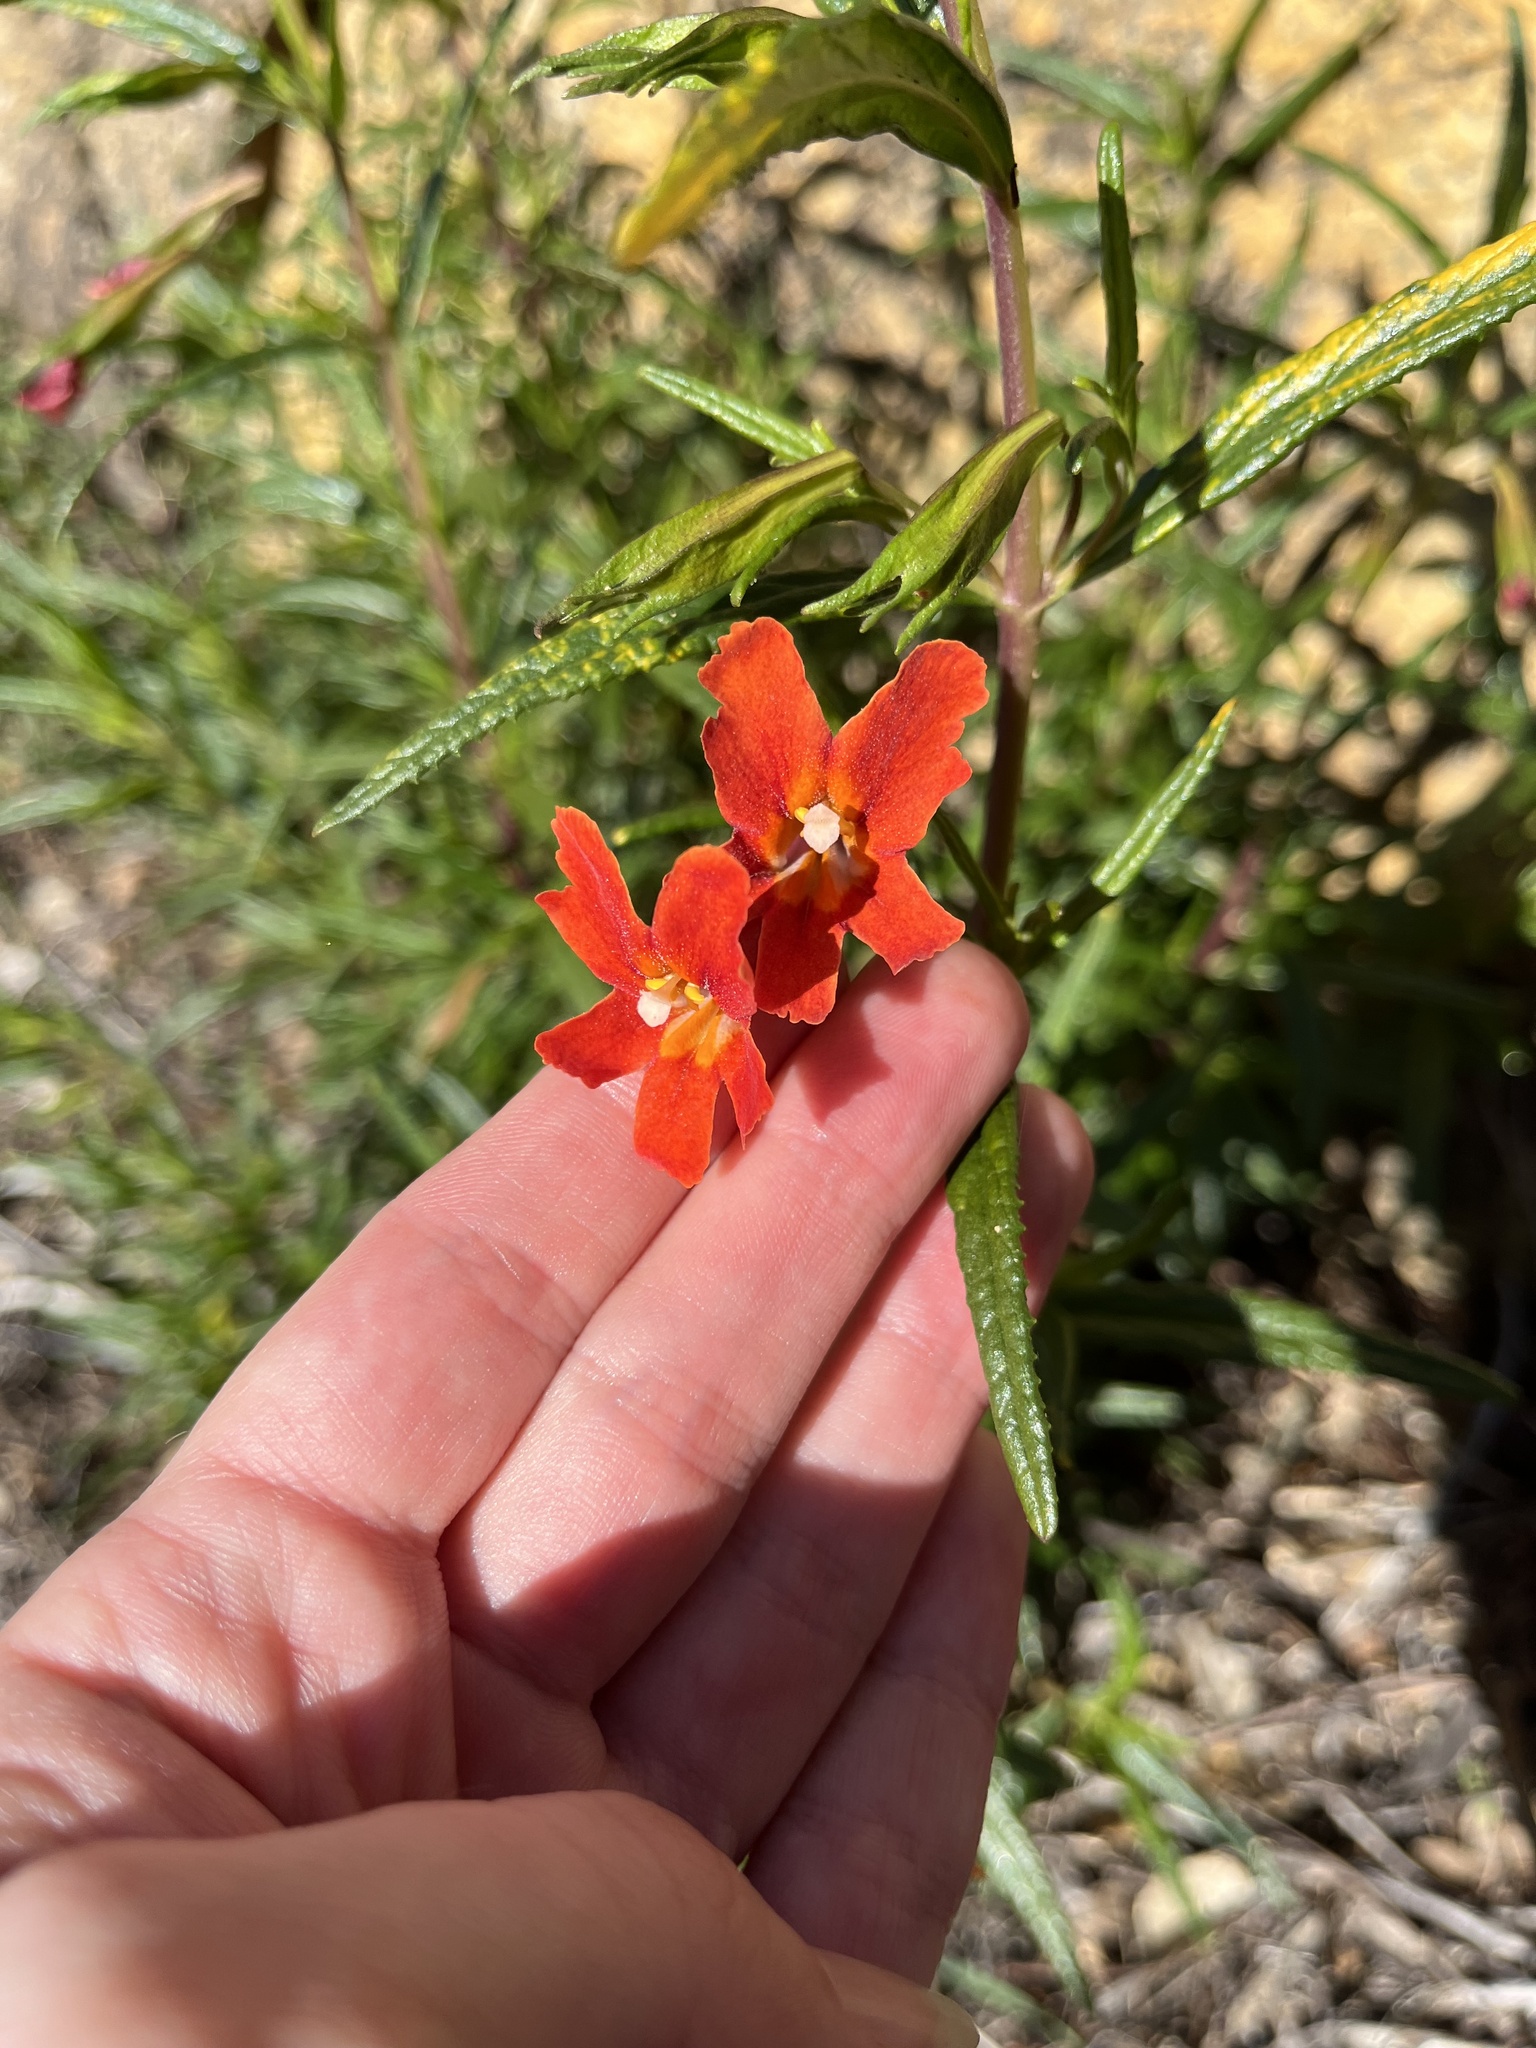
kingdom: Plantae
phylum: Tracheophyta
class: Magnoliopsida
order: Lamiales
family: Phrymaceae
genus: Diplacus
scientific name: Diplacus puniceus
